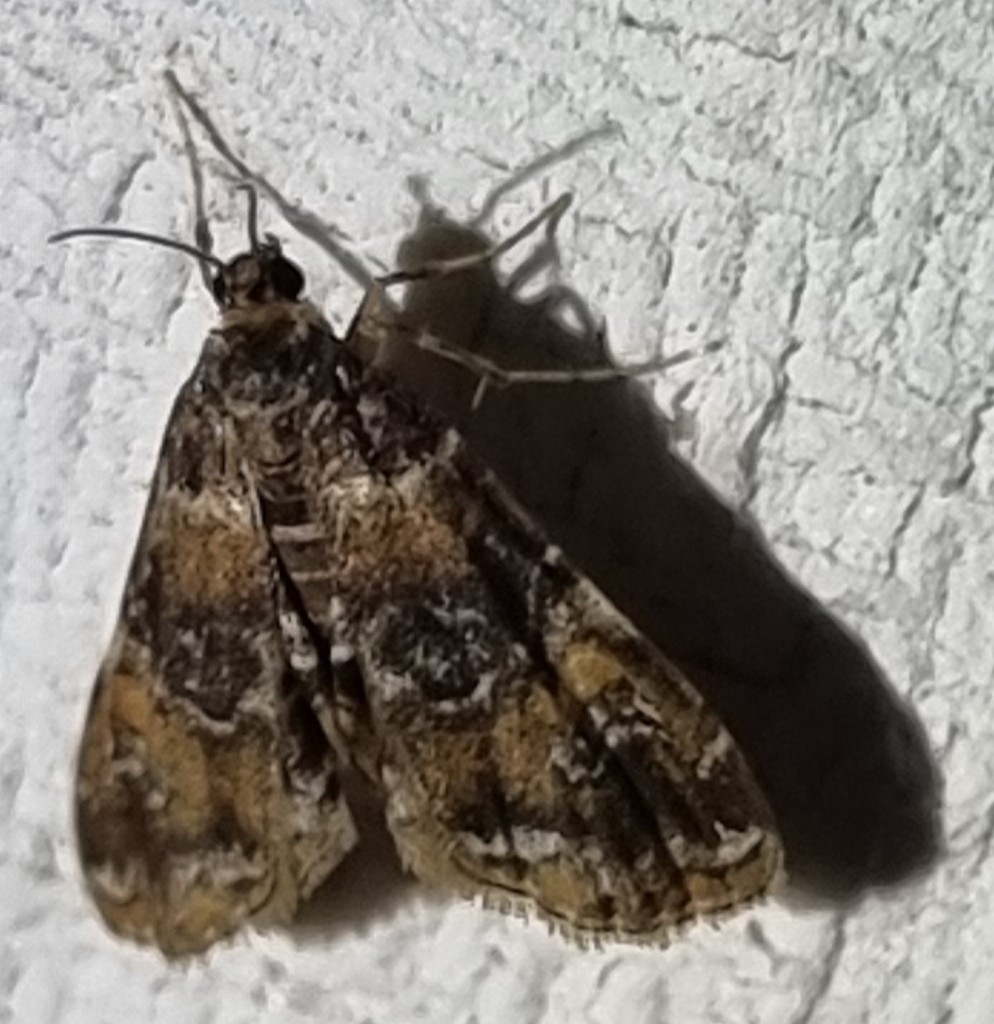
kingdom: Animalia
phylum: Arthropoda
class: Insecta
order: Lepidoptera
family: Crambidae
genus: Elophila
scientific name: Elophila responsalis
